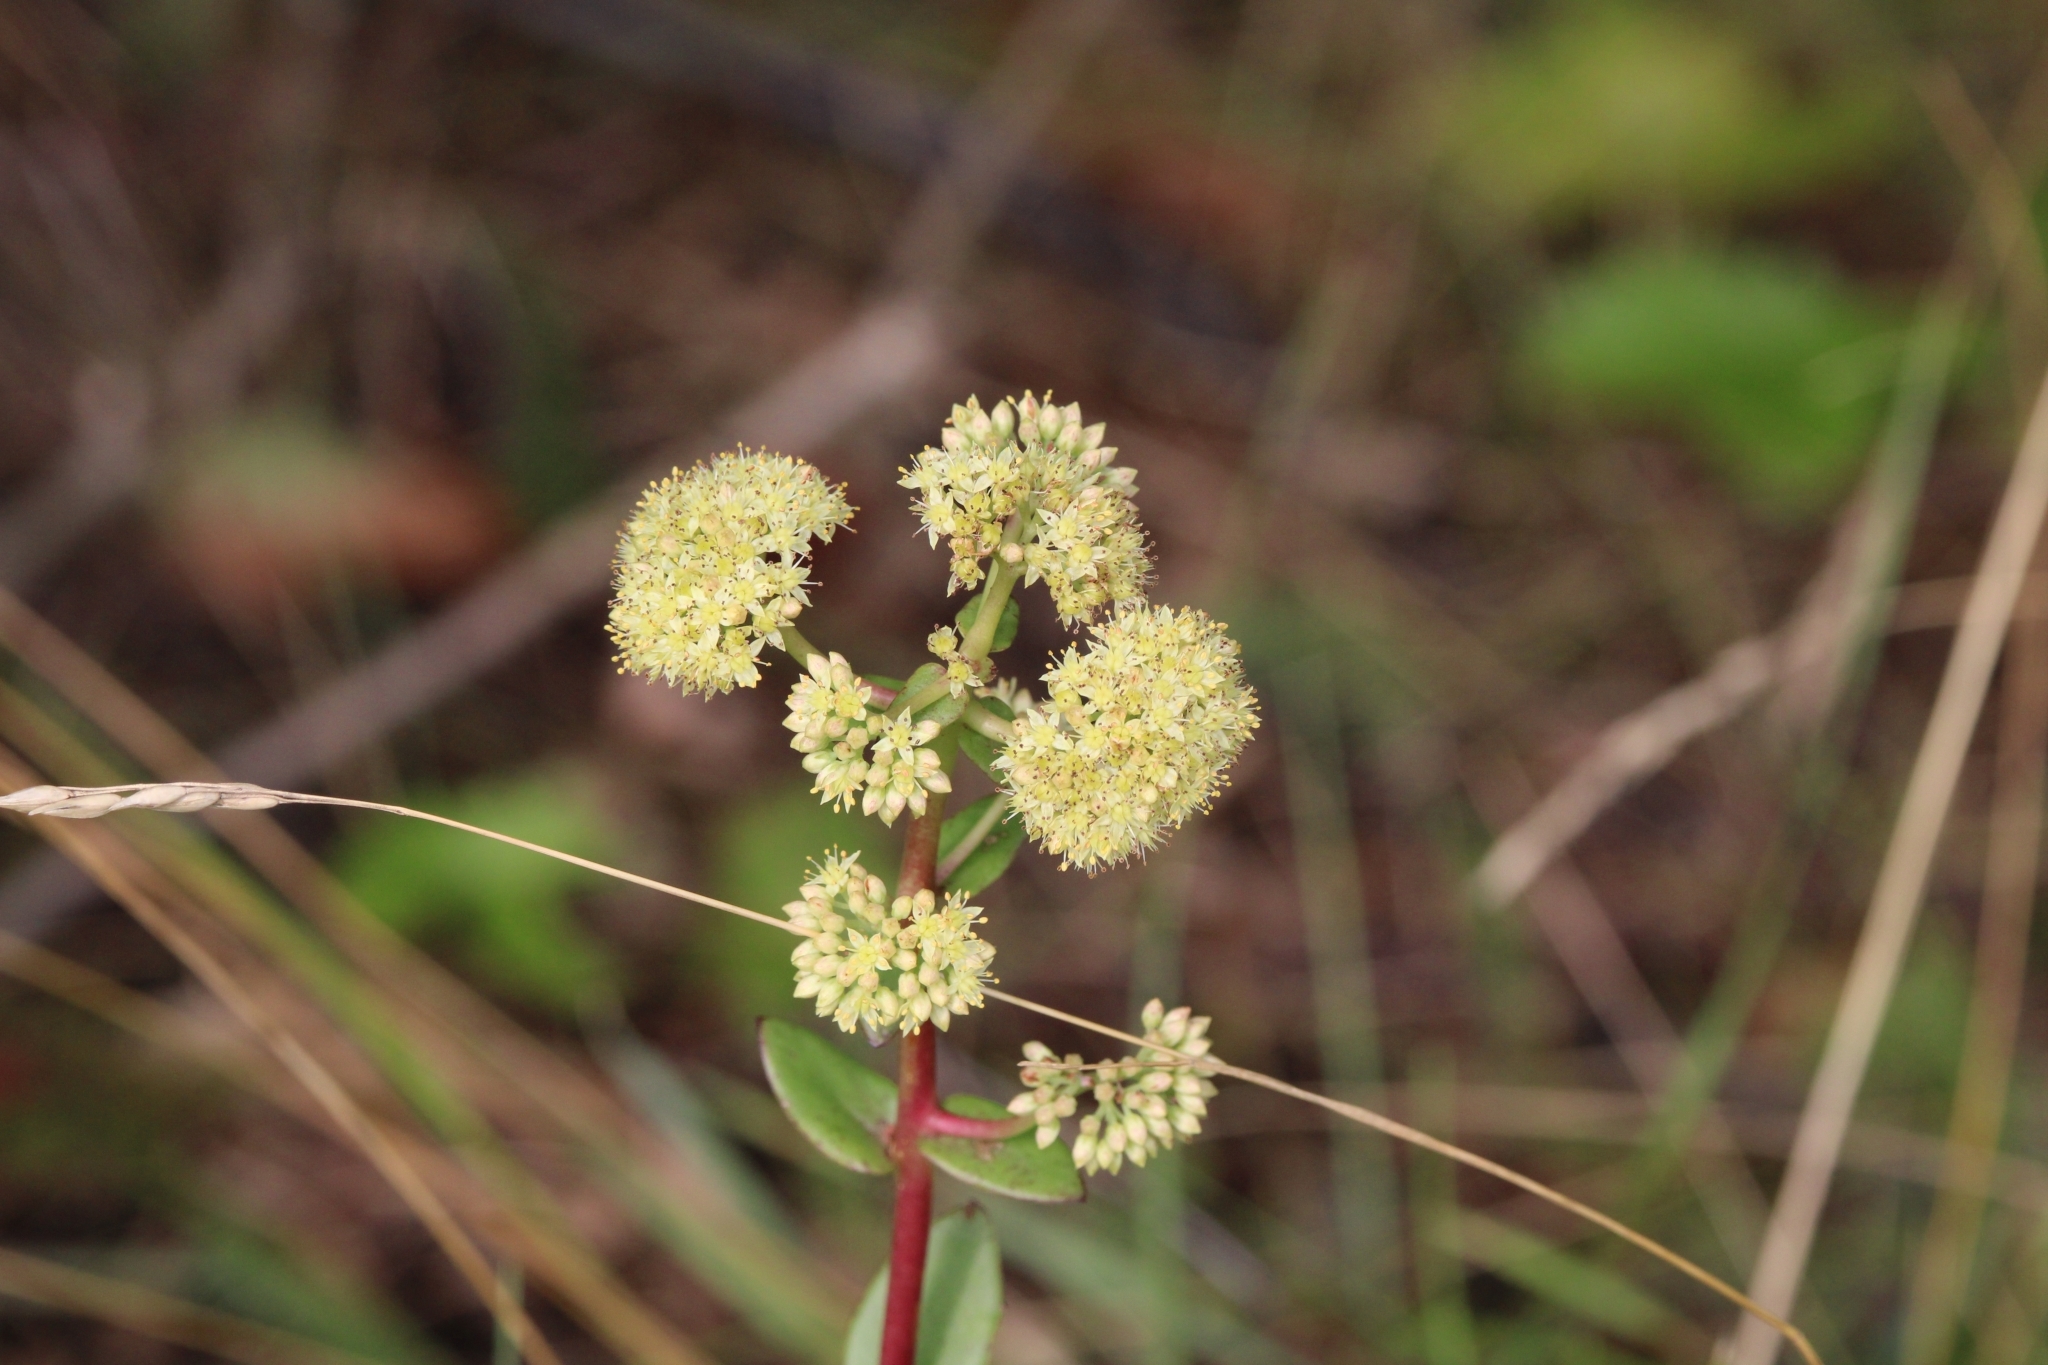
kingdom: Plantae
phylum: Tracheophyta
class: Magnoliopsida
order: Saxifragales
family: Crassulaceae
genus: Hylotelephium
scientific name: Hylotelephium maximum
